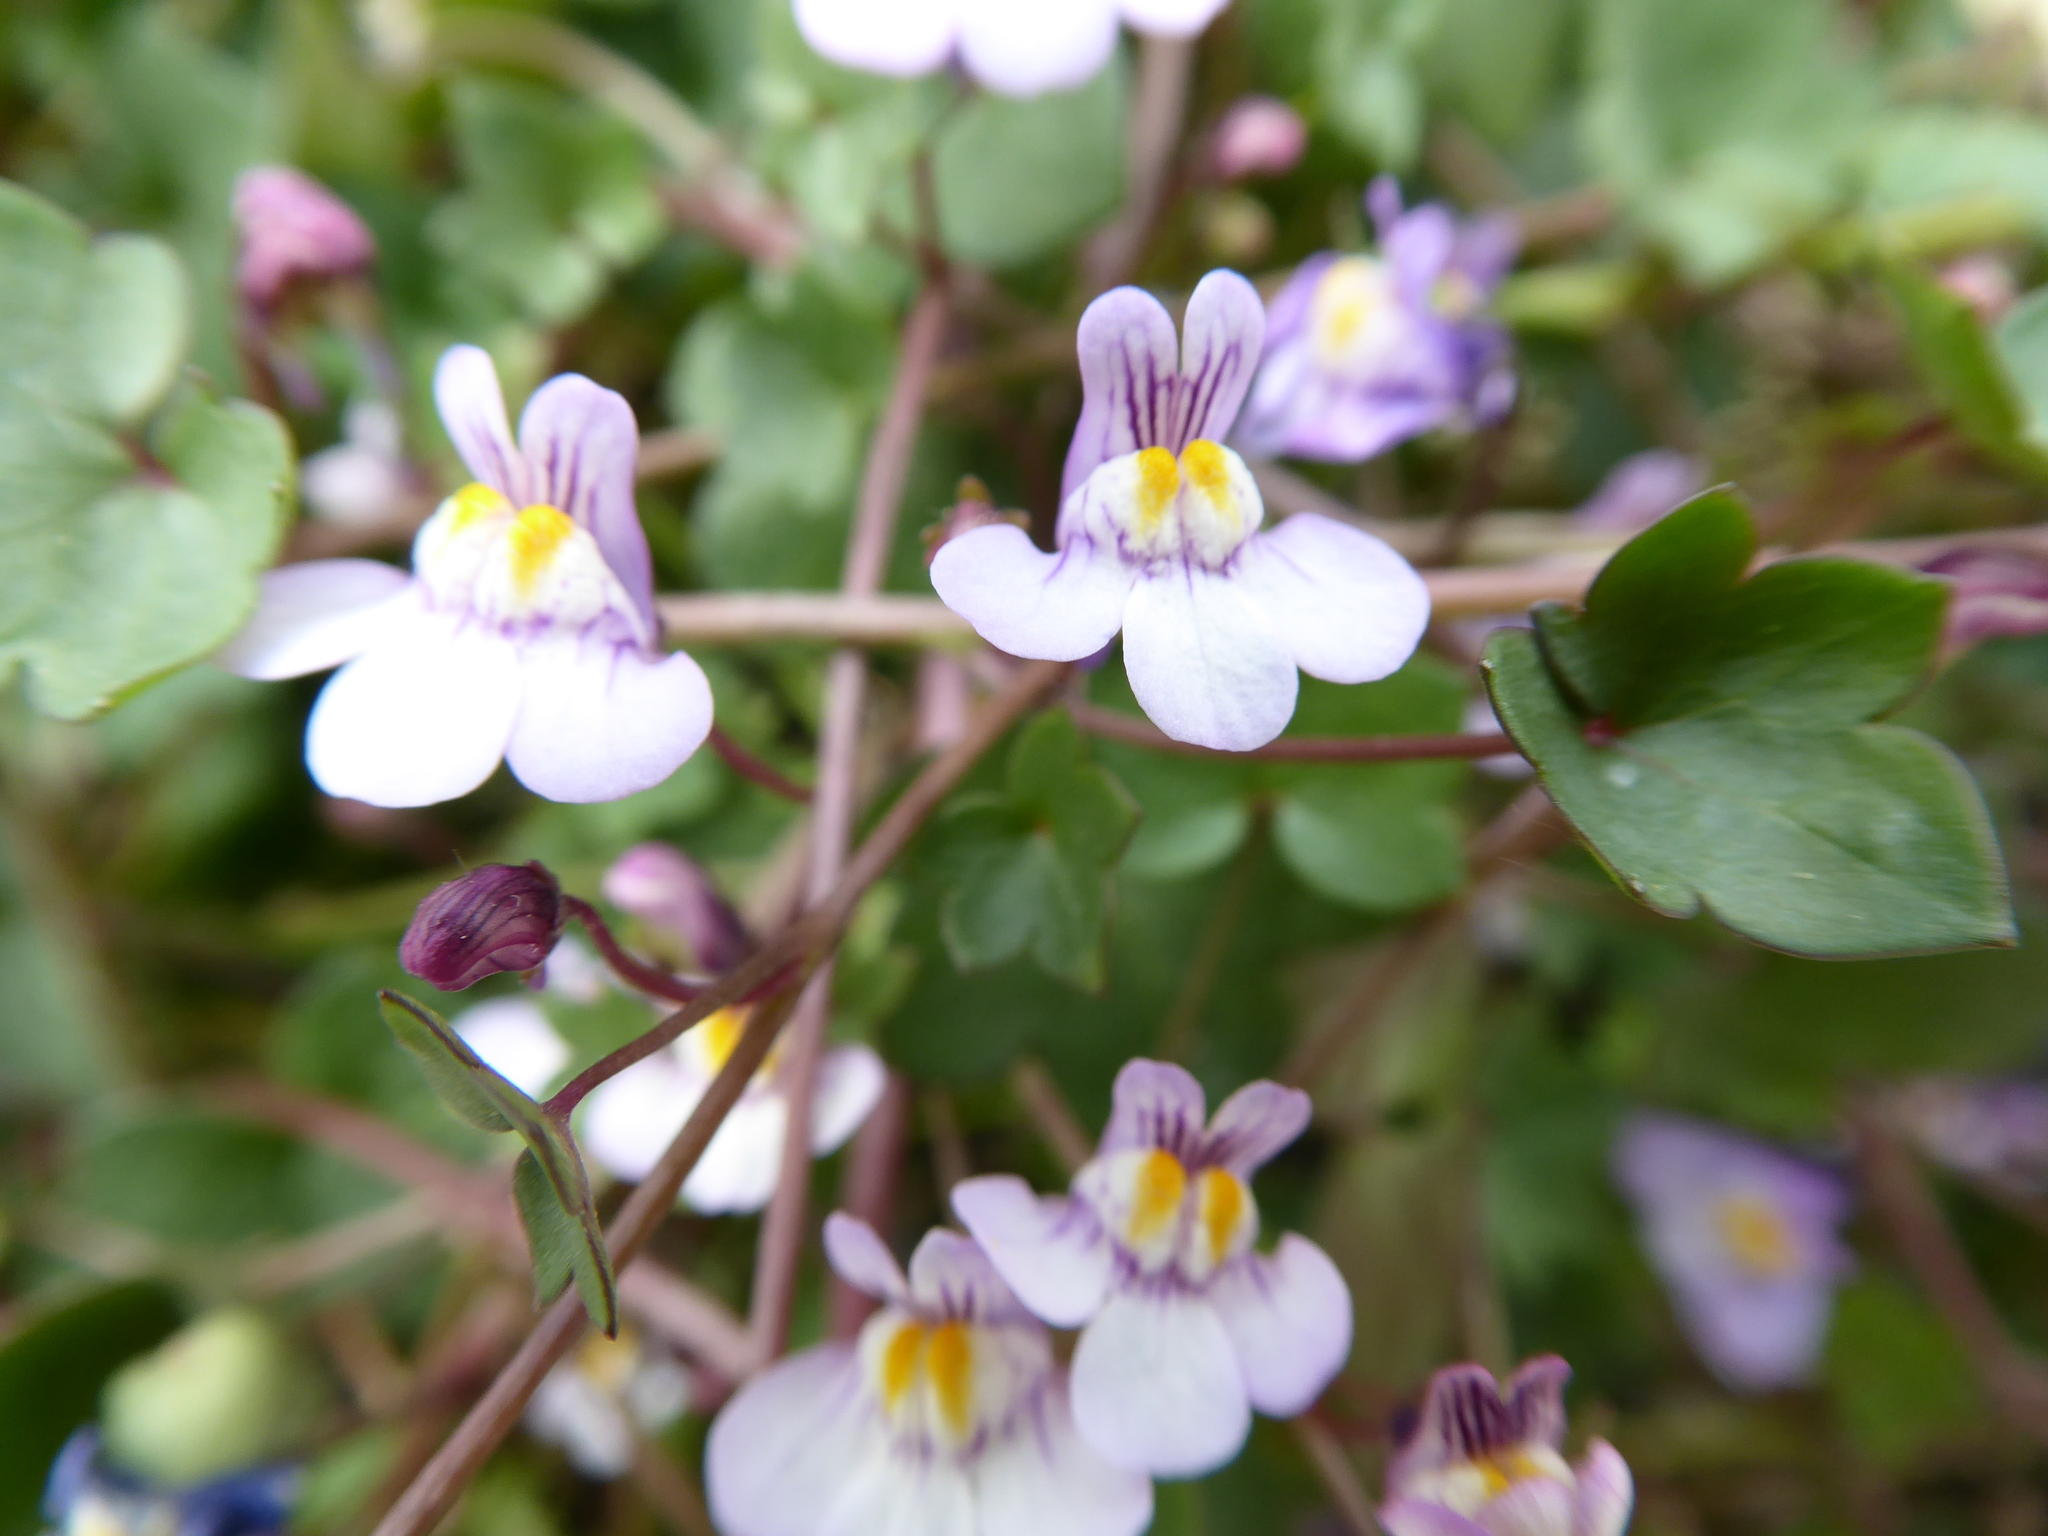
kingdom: Plantae
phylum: Tracheophyta
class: Magnoliopsida
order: Lamiales
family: Plantaginaceae
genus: Cymbalaria
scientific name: Cymbalaria muralis
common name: Ivy-leaved toadflax
